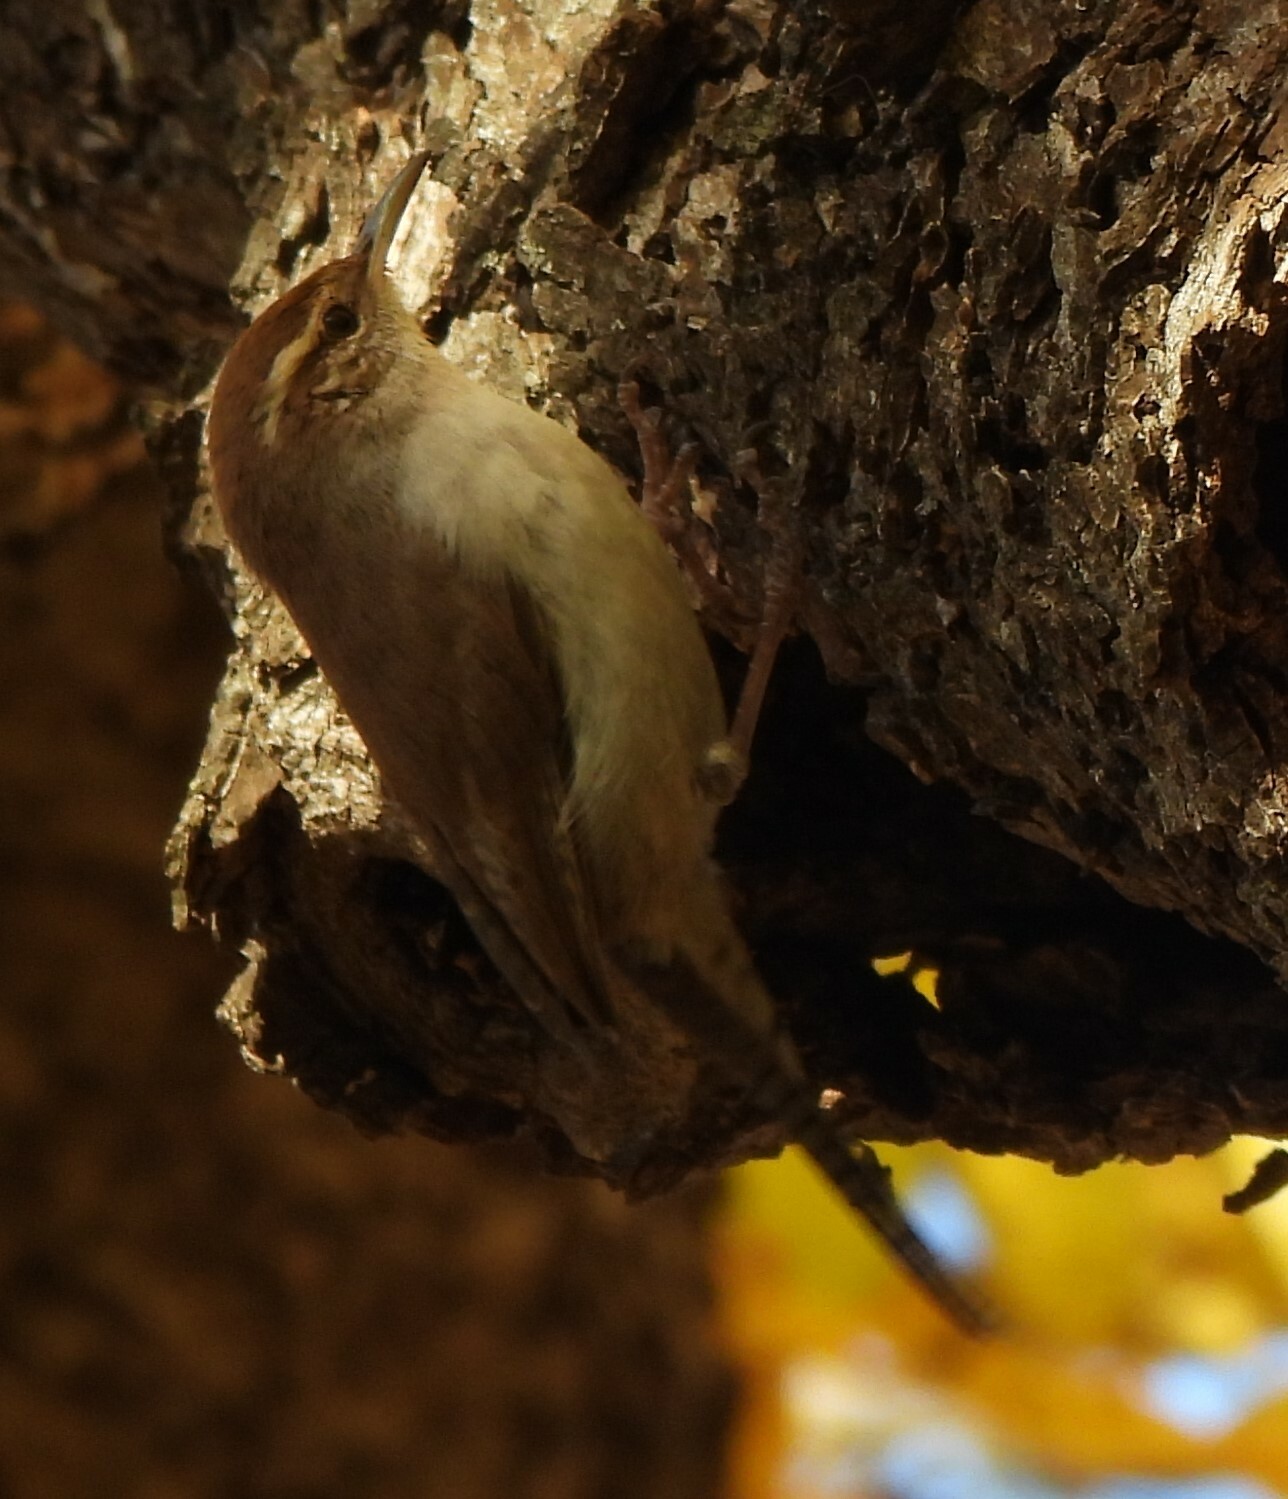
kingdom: Animalia
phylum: Chordata
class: Aves
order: Passeriformes
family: Troglodytidae
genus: Thryomanes
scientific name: Thryomanes bewickii
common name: Bewick's wren
